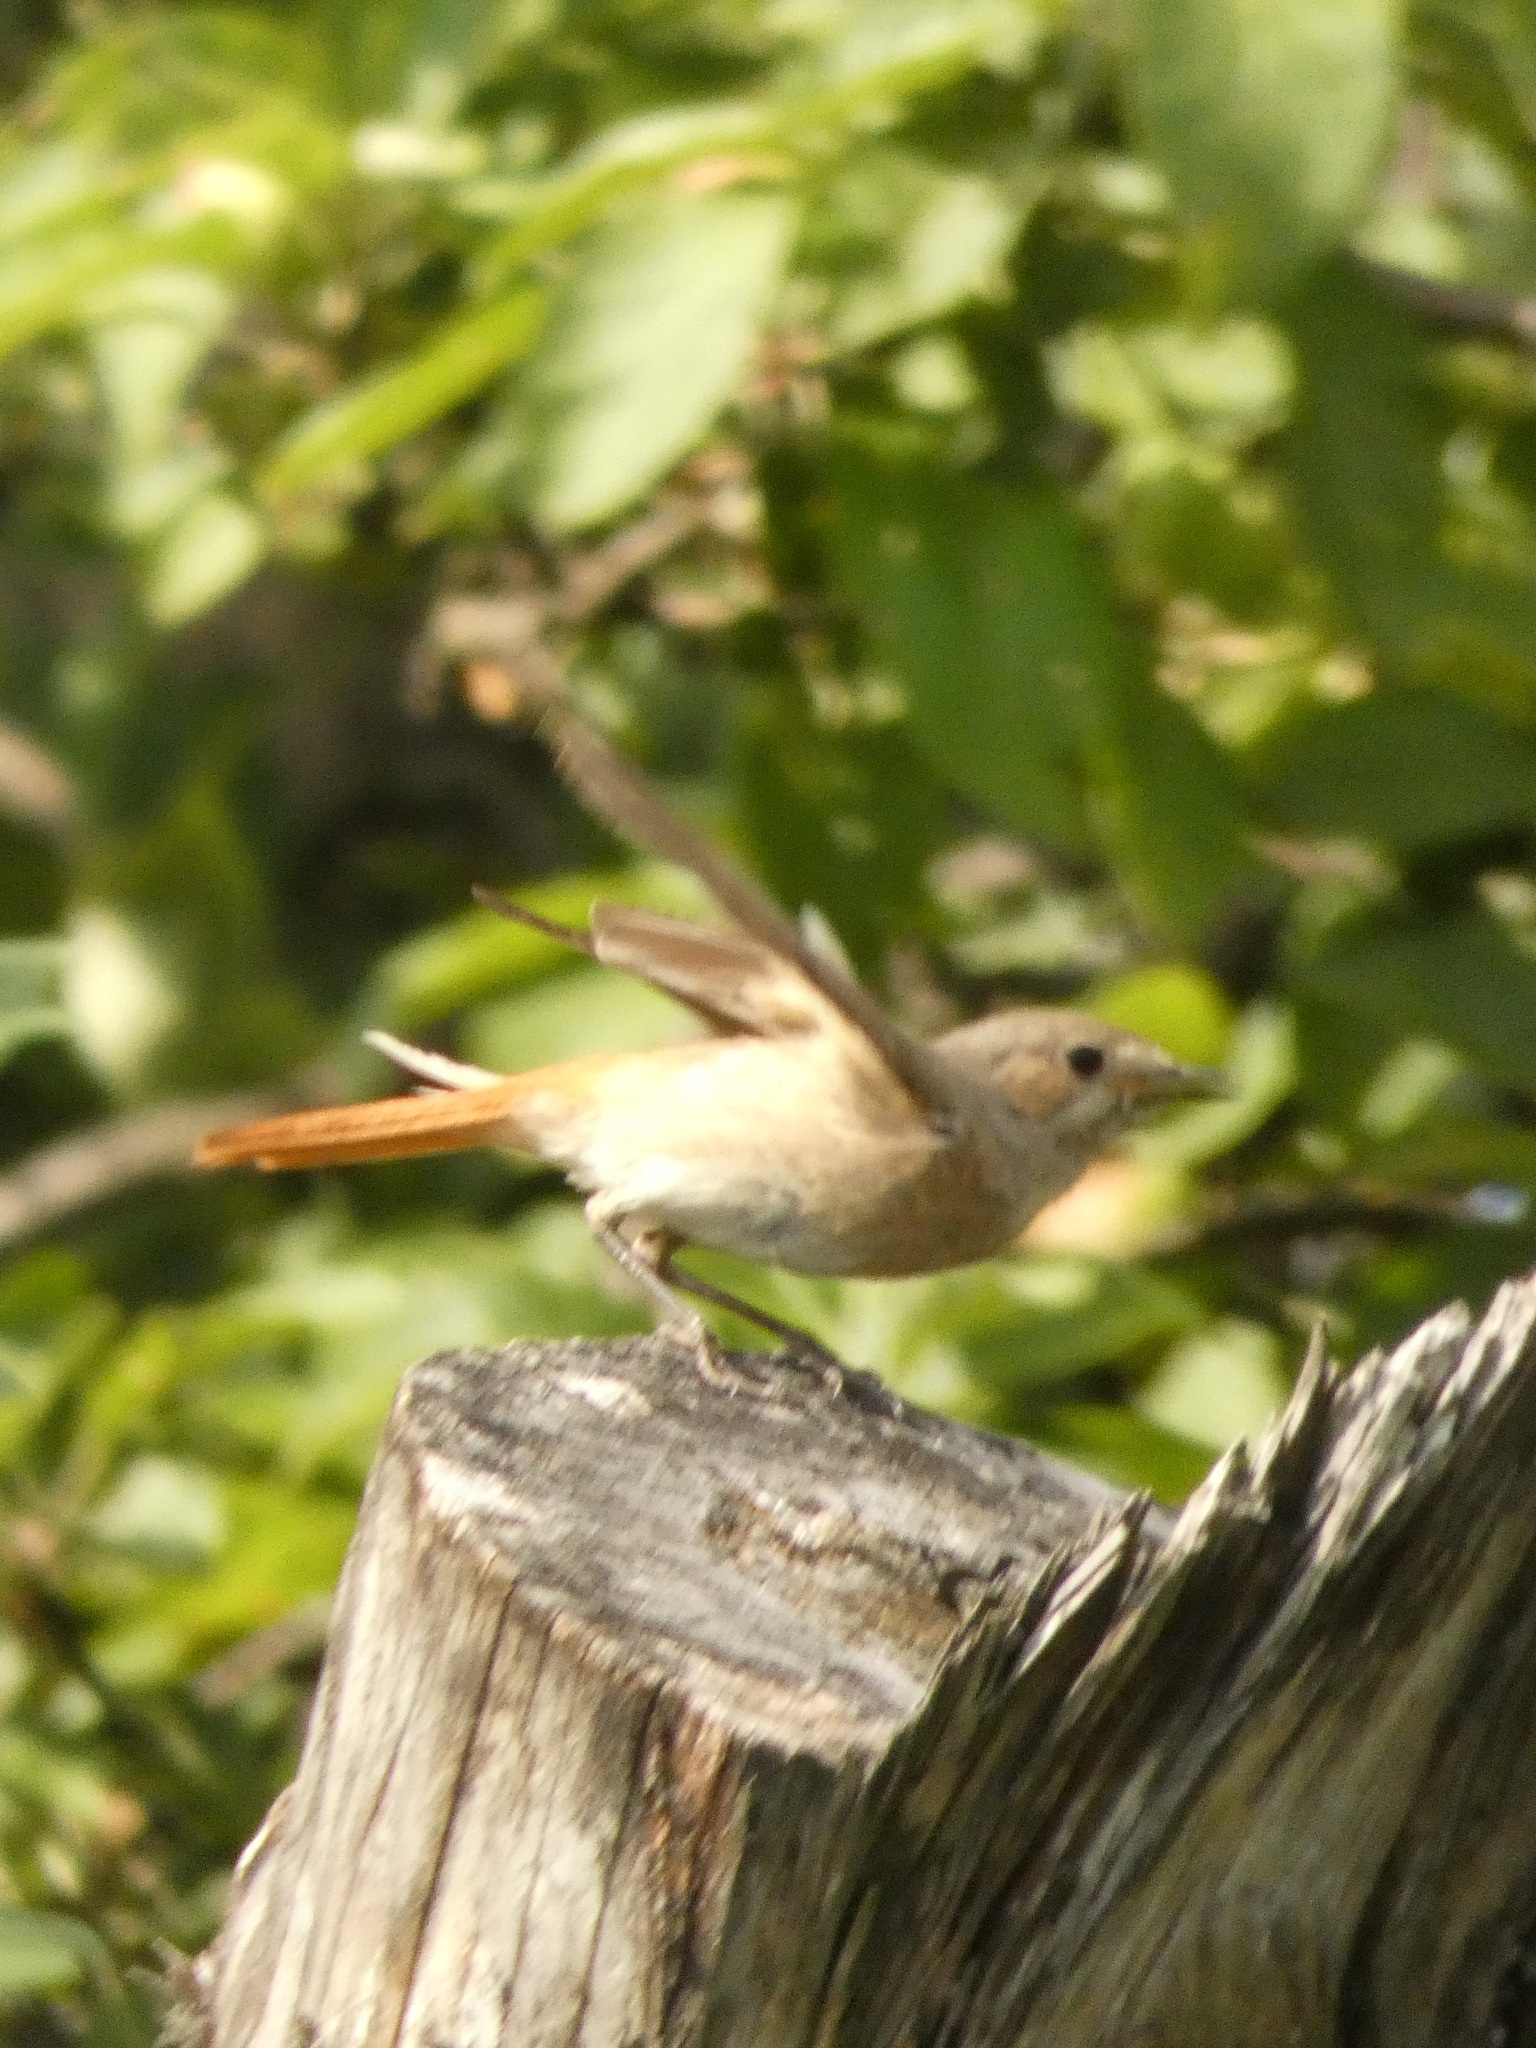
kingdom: Animalia
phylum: Chordata
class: Aves
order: Passeriformes
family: Muscicapidae
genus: Phoenicurus
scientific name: Phoenicurus phoenicurus
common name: Common redstart
